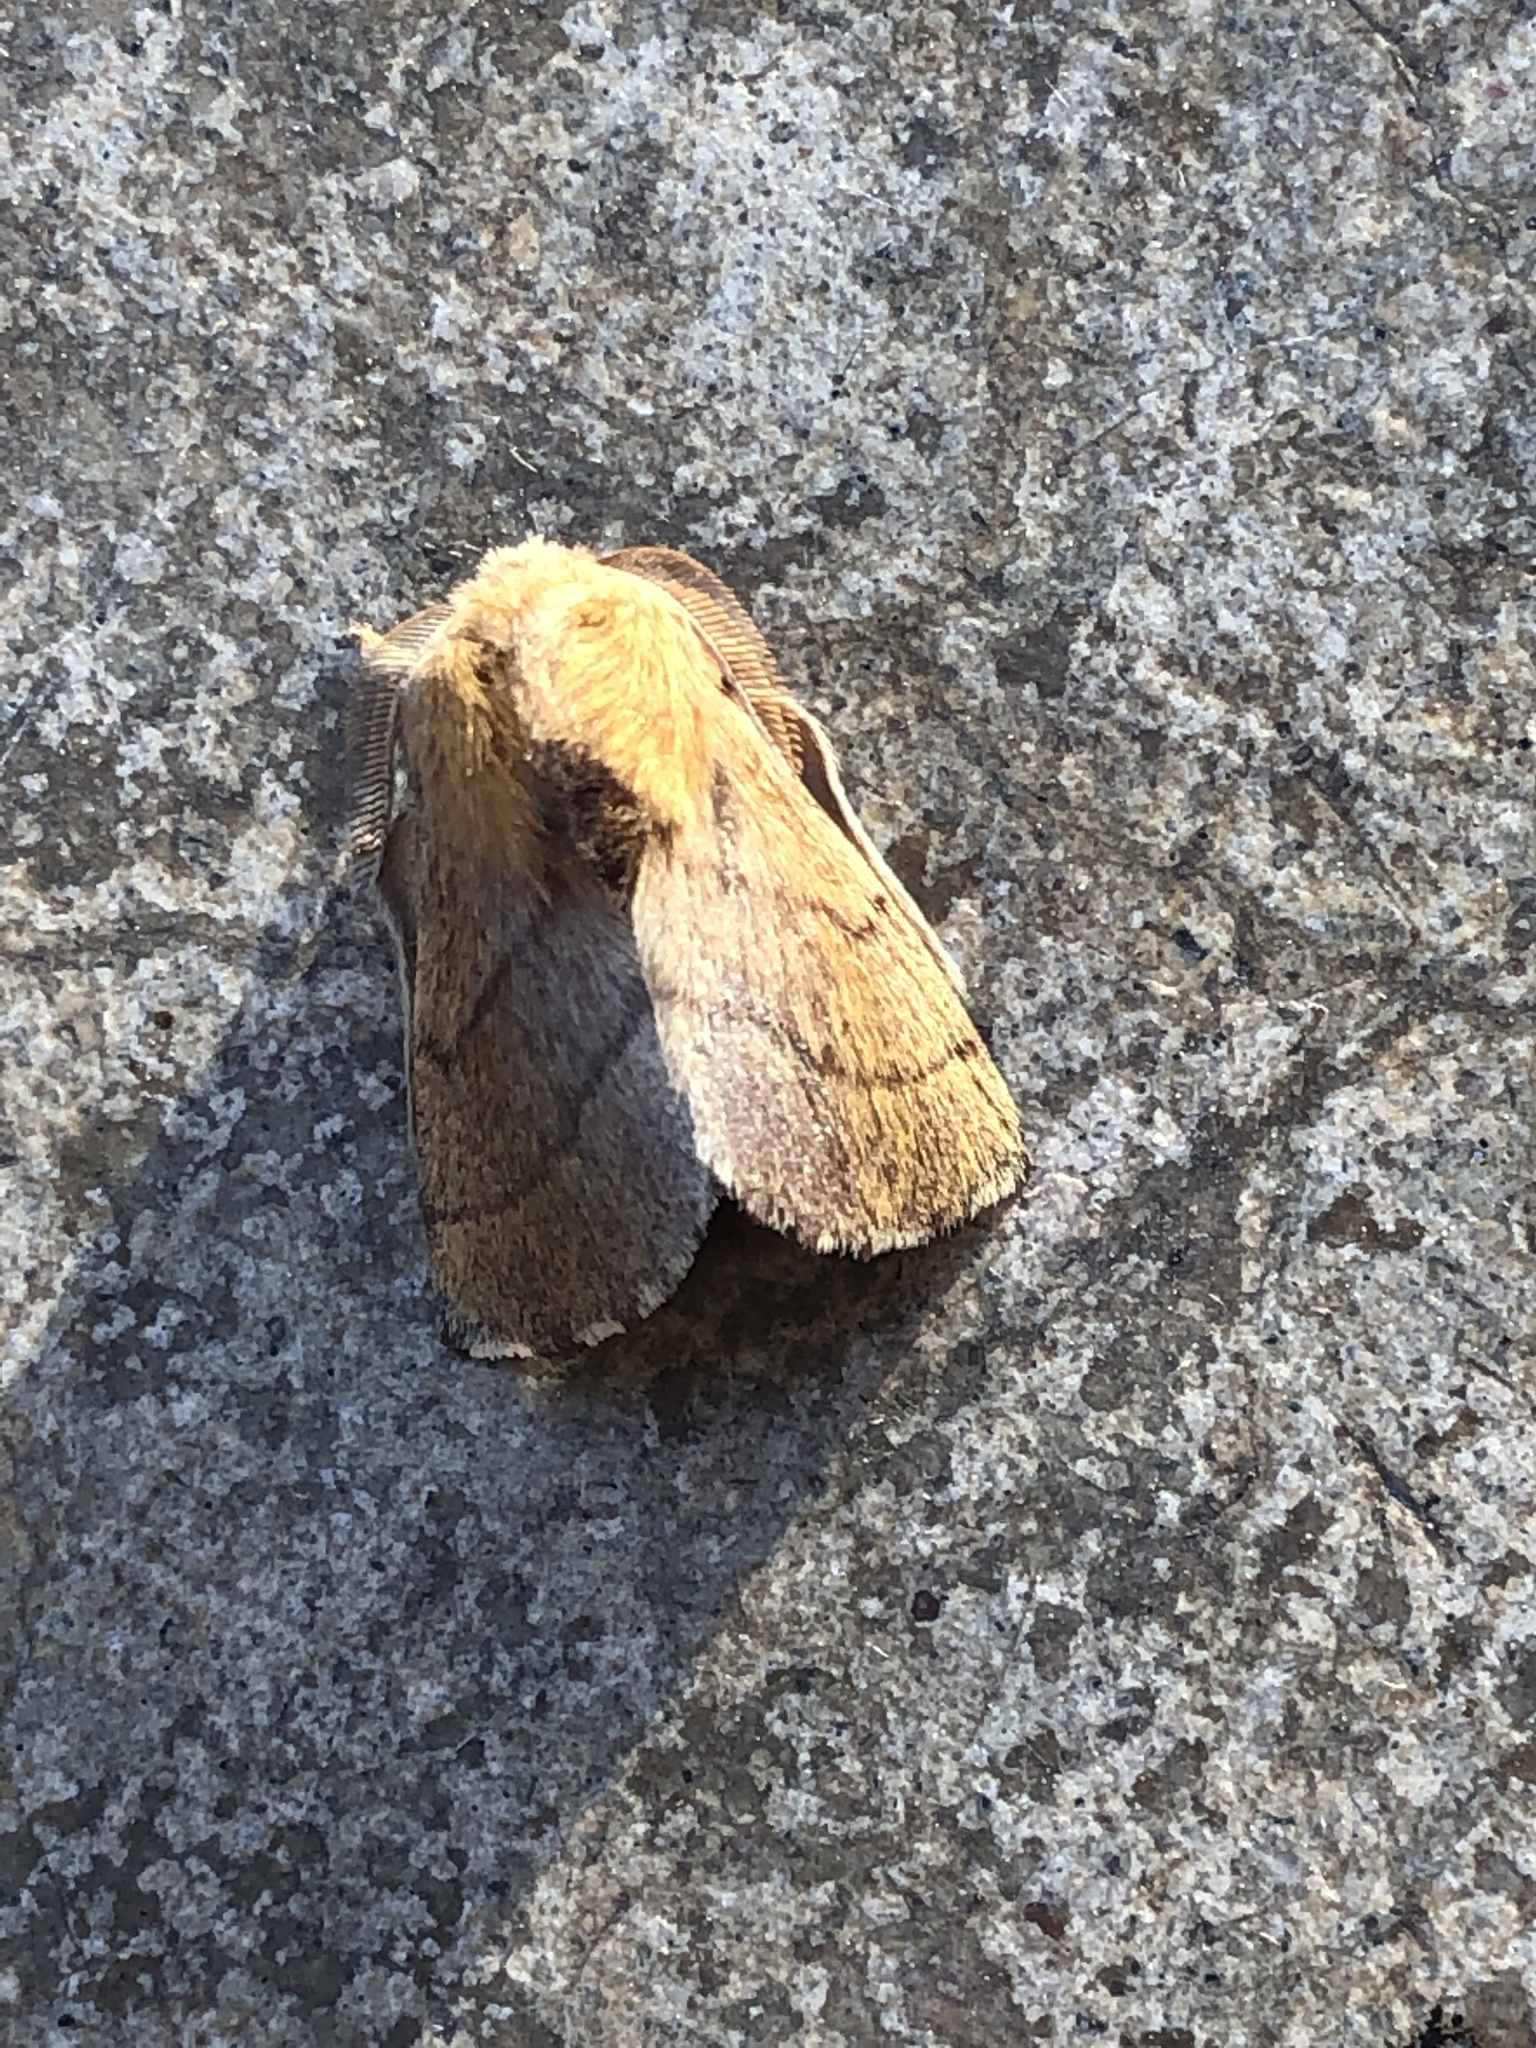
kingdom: Animalia
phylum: Arthropoda
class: Insecta
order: Lepidoptera
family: Lasiocampidae
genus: Malacosoma
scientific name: Malacosoma disstria
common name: Forest tent caterpillar
